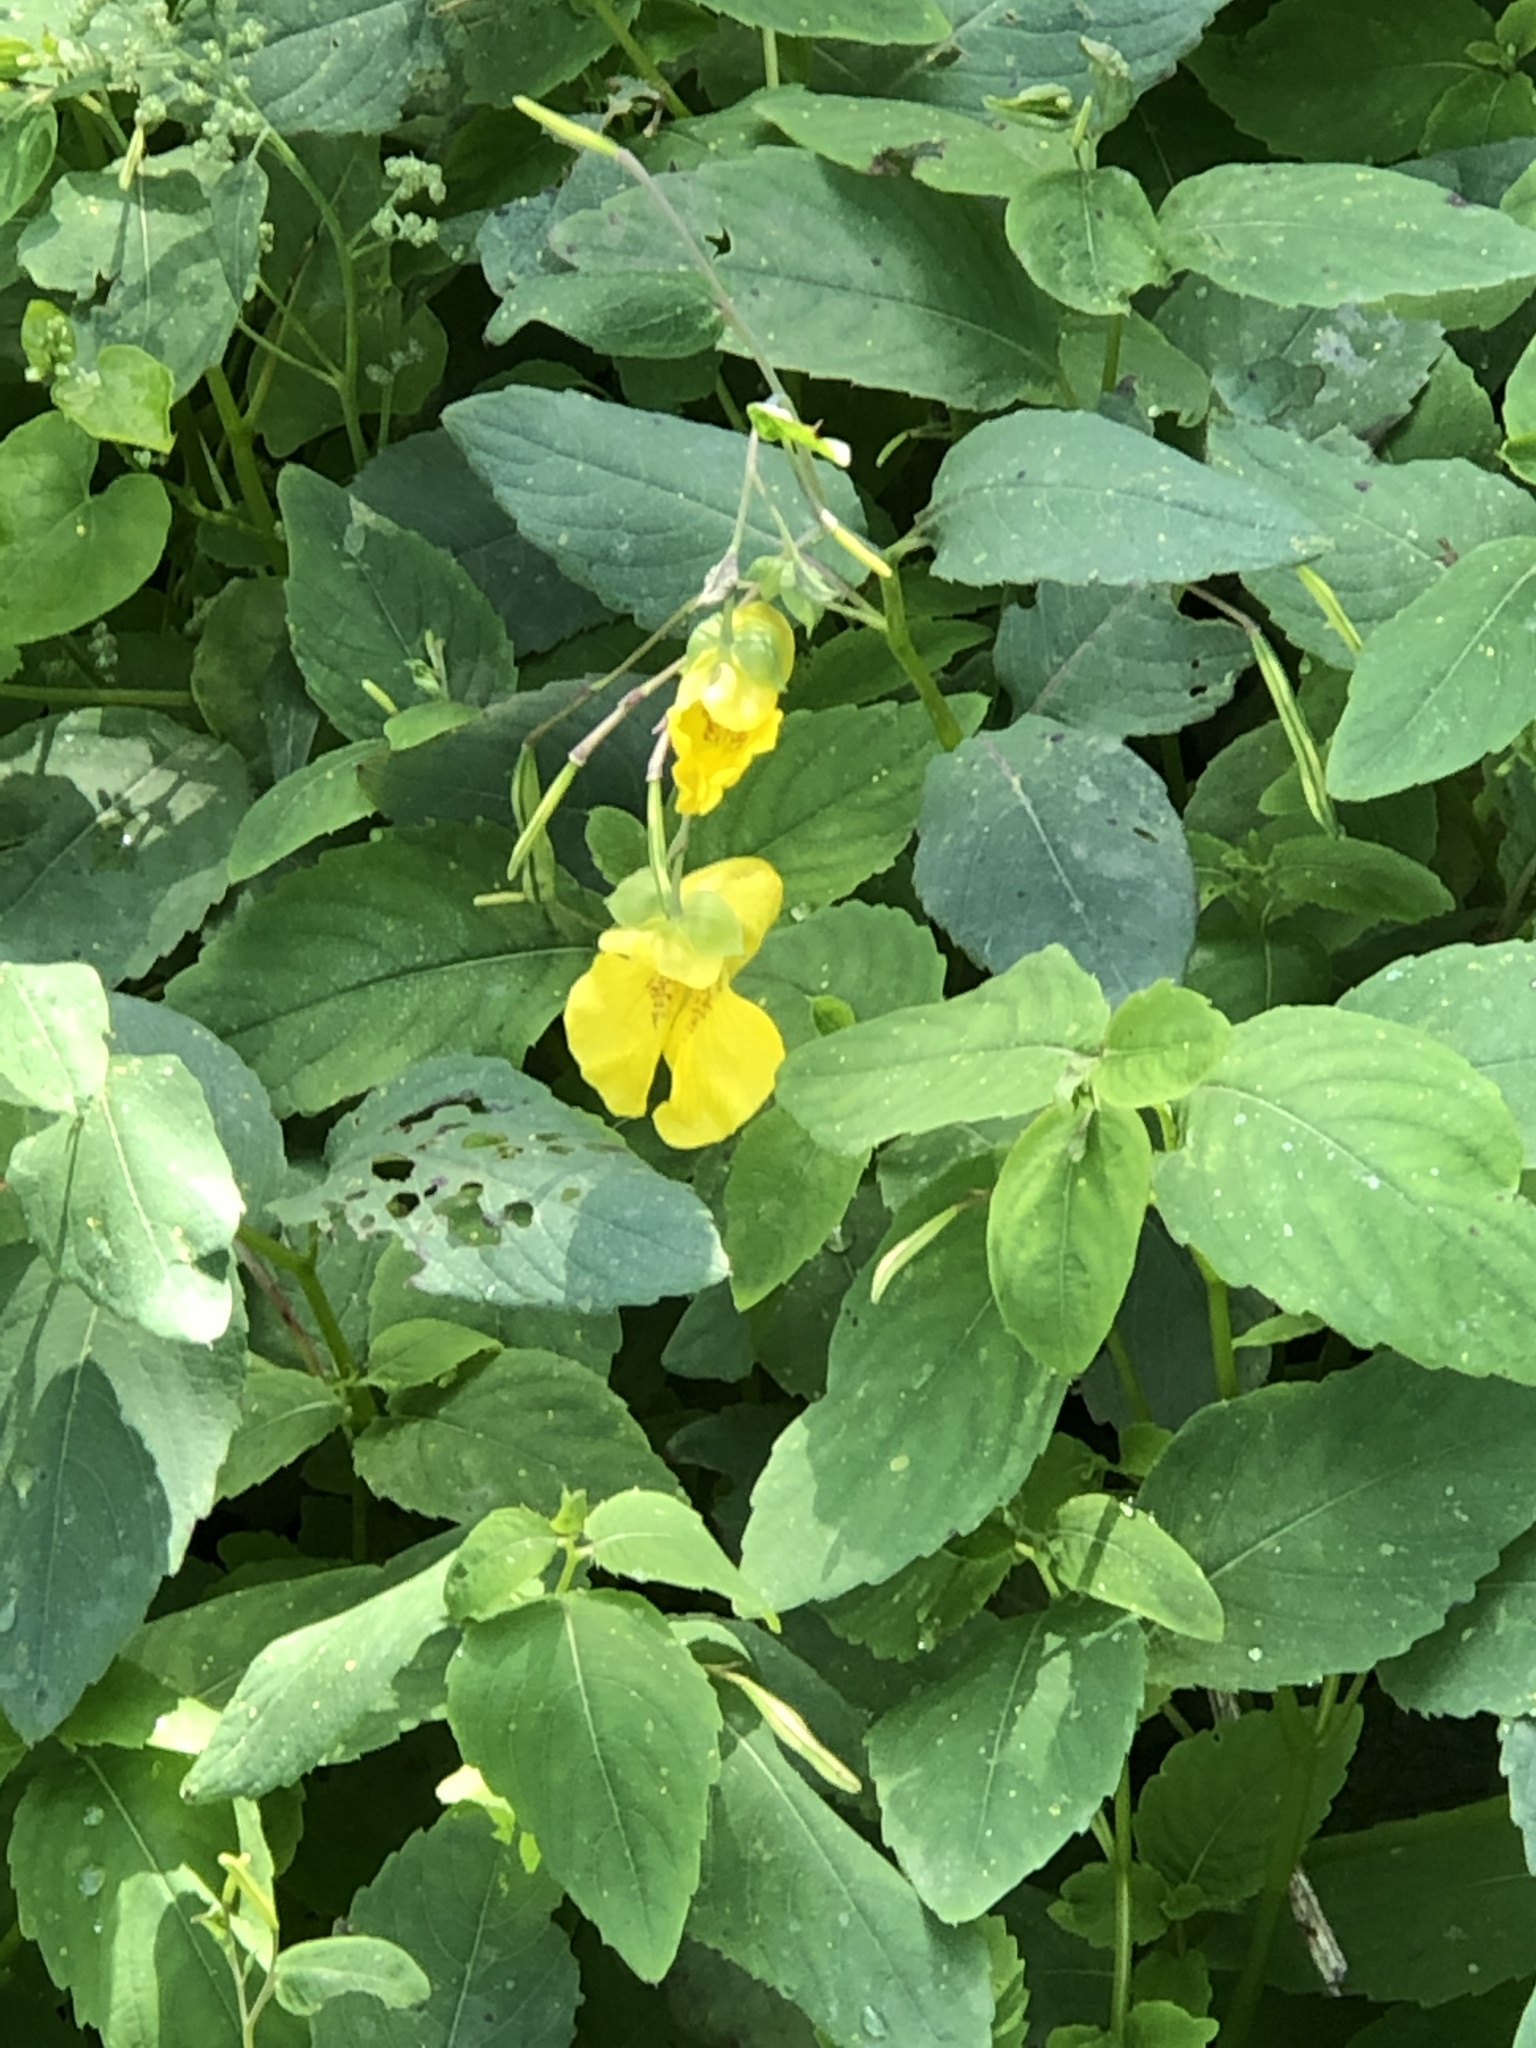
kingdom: Plantae
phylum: Tracheophyta
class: Magnoliopsida
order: Ericales
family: Balsaminaceae
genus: Impatiens
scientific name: Impatiens pallida
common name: Pale snapweed
